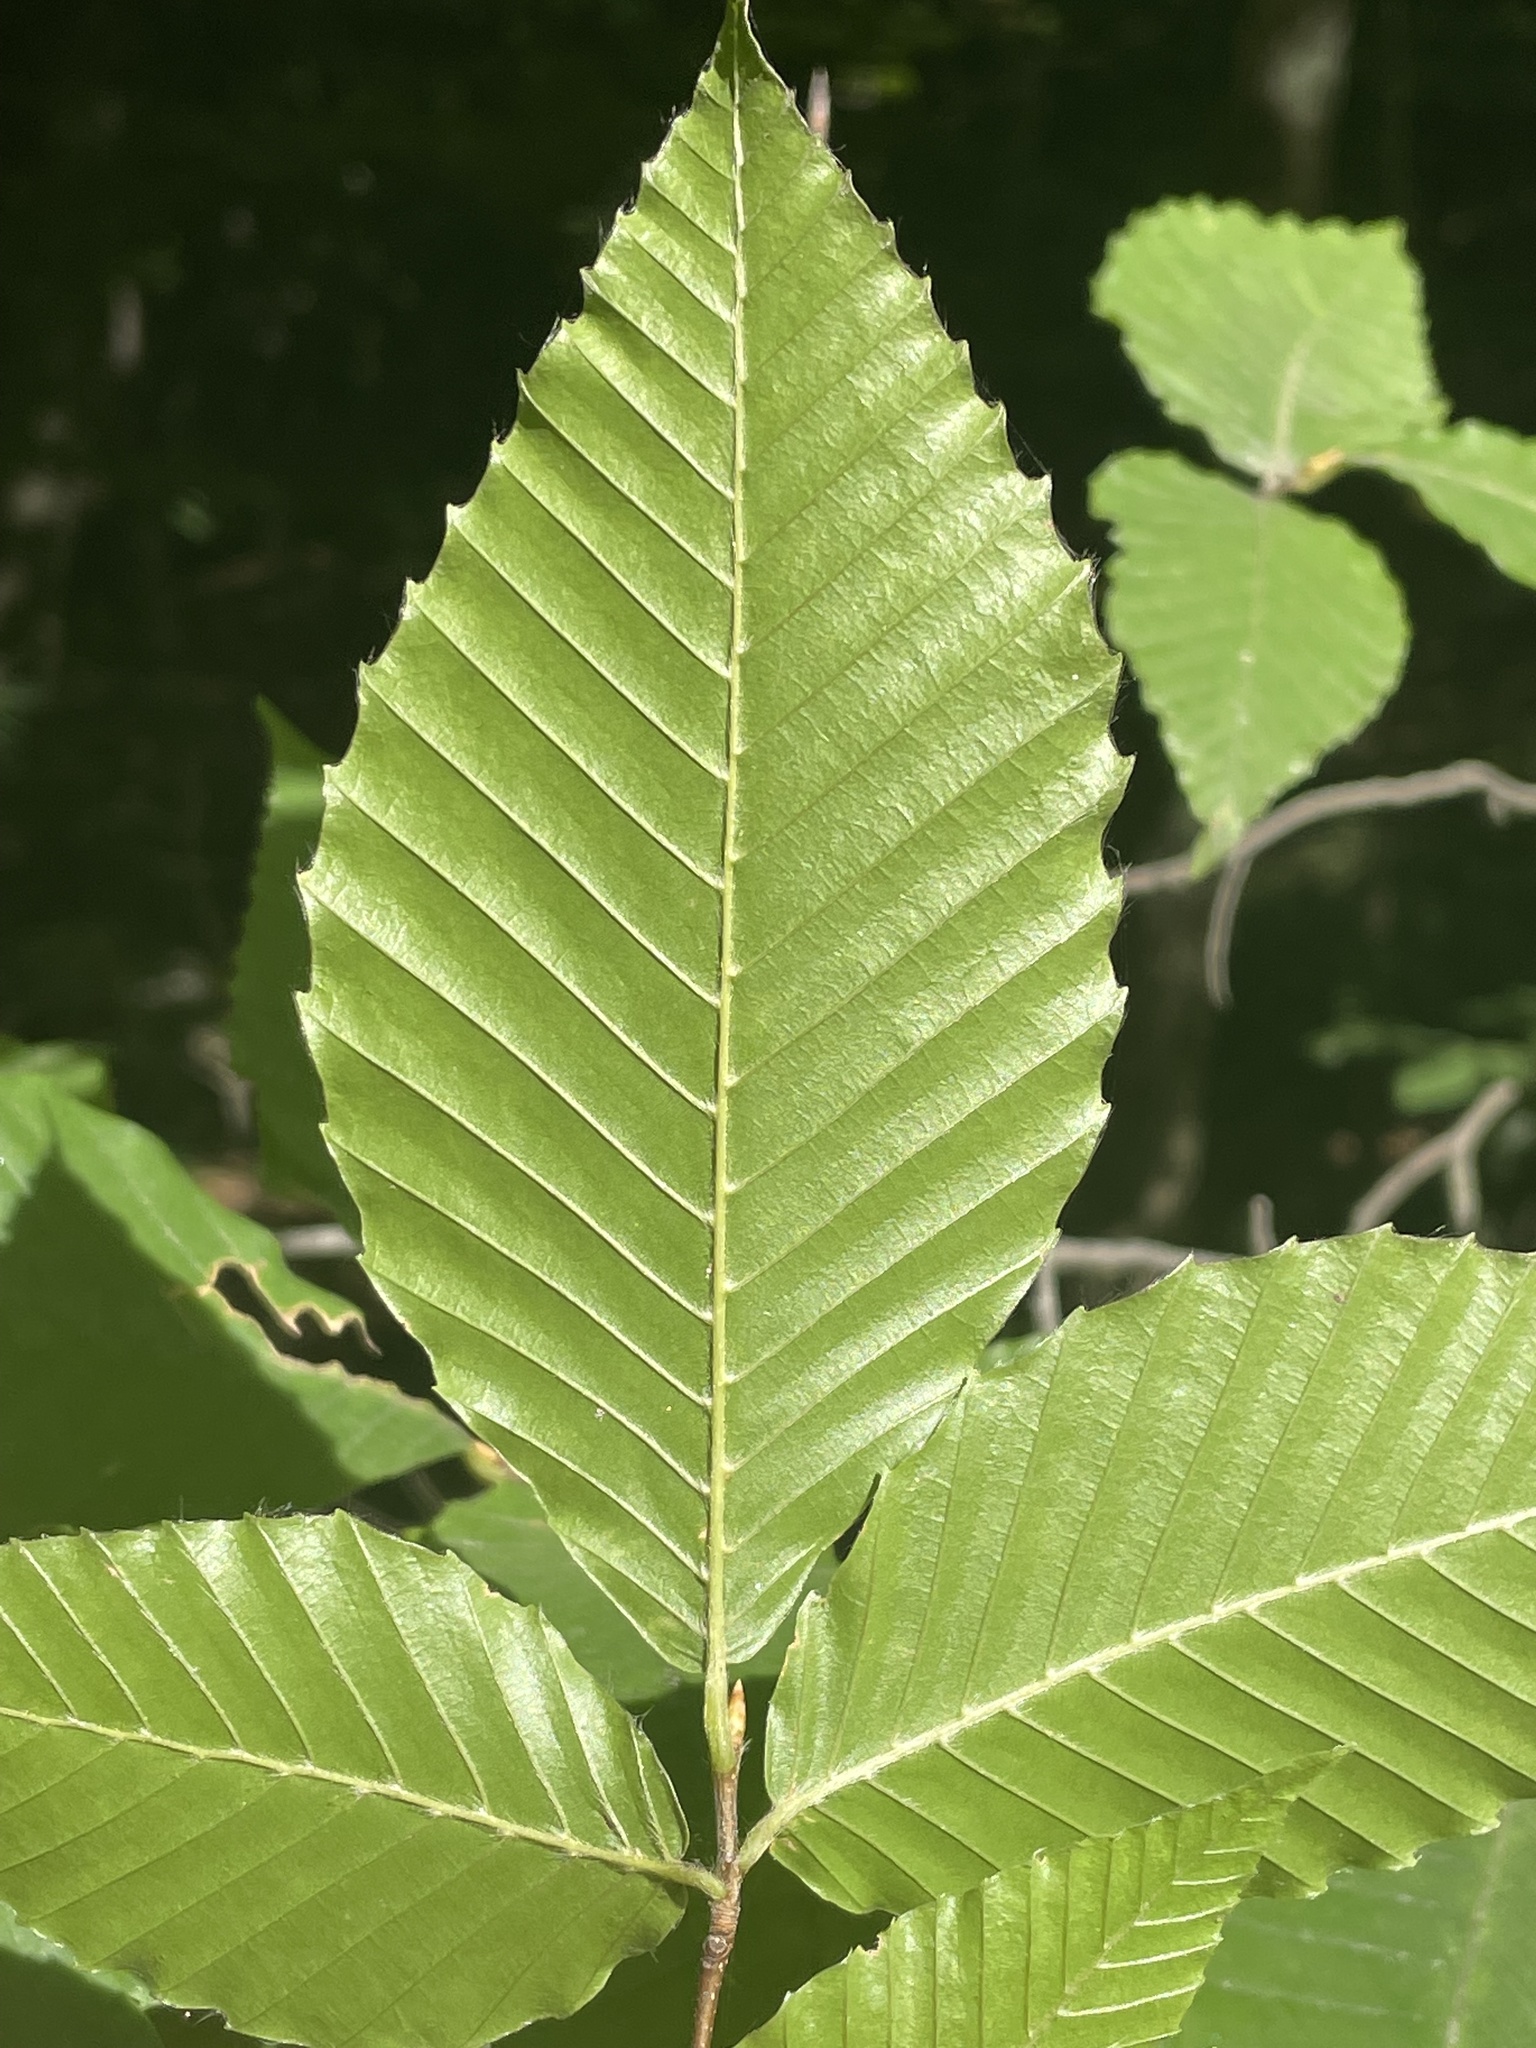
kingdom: Plantae
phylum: Tracheophyta
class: Magnoliopsida
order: Fagales
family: Fagaceae
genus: Fagus
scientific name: Fagus grandifolia
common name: American beech
